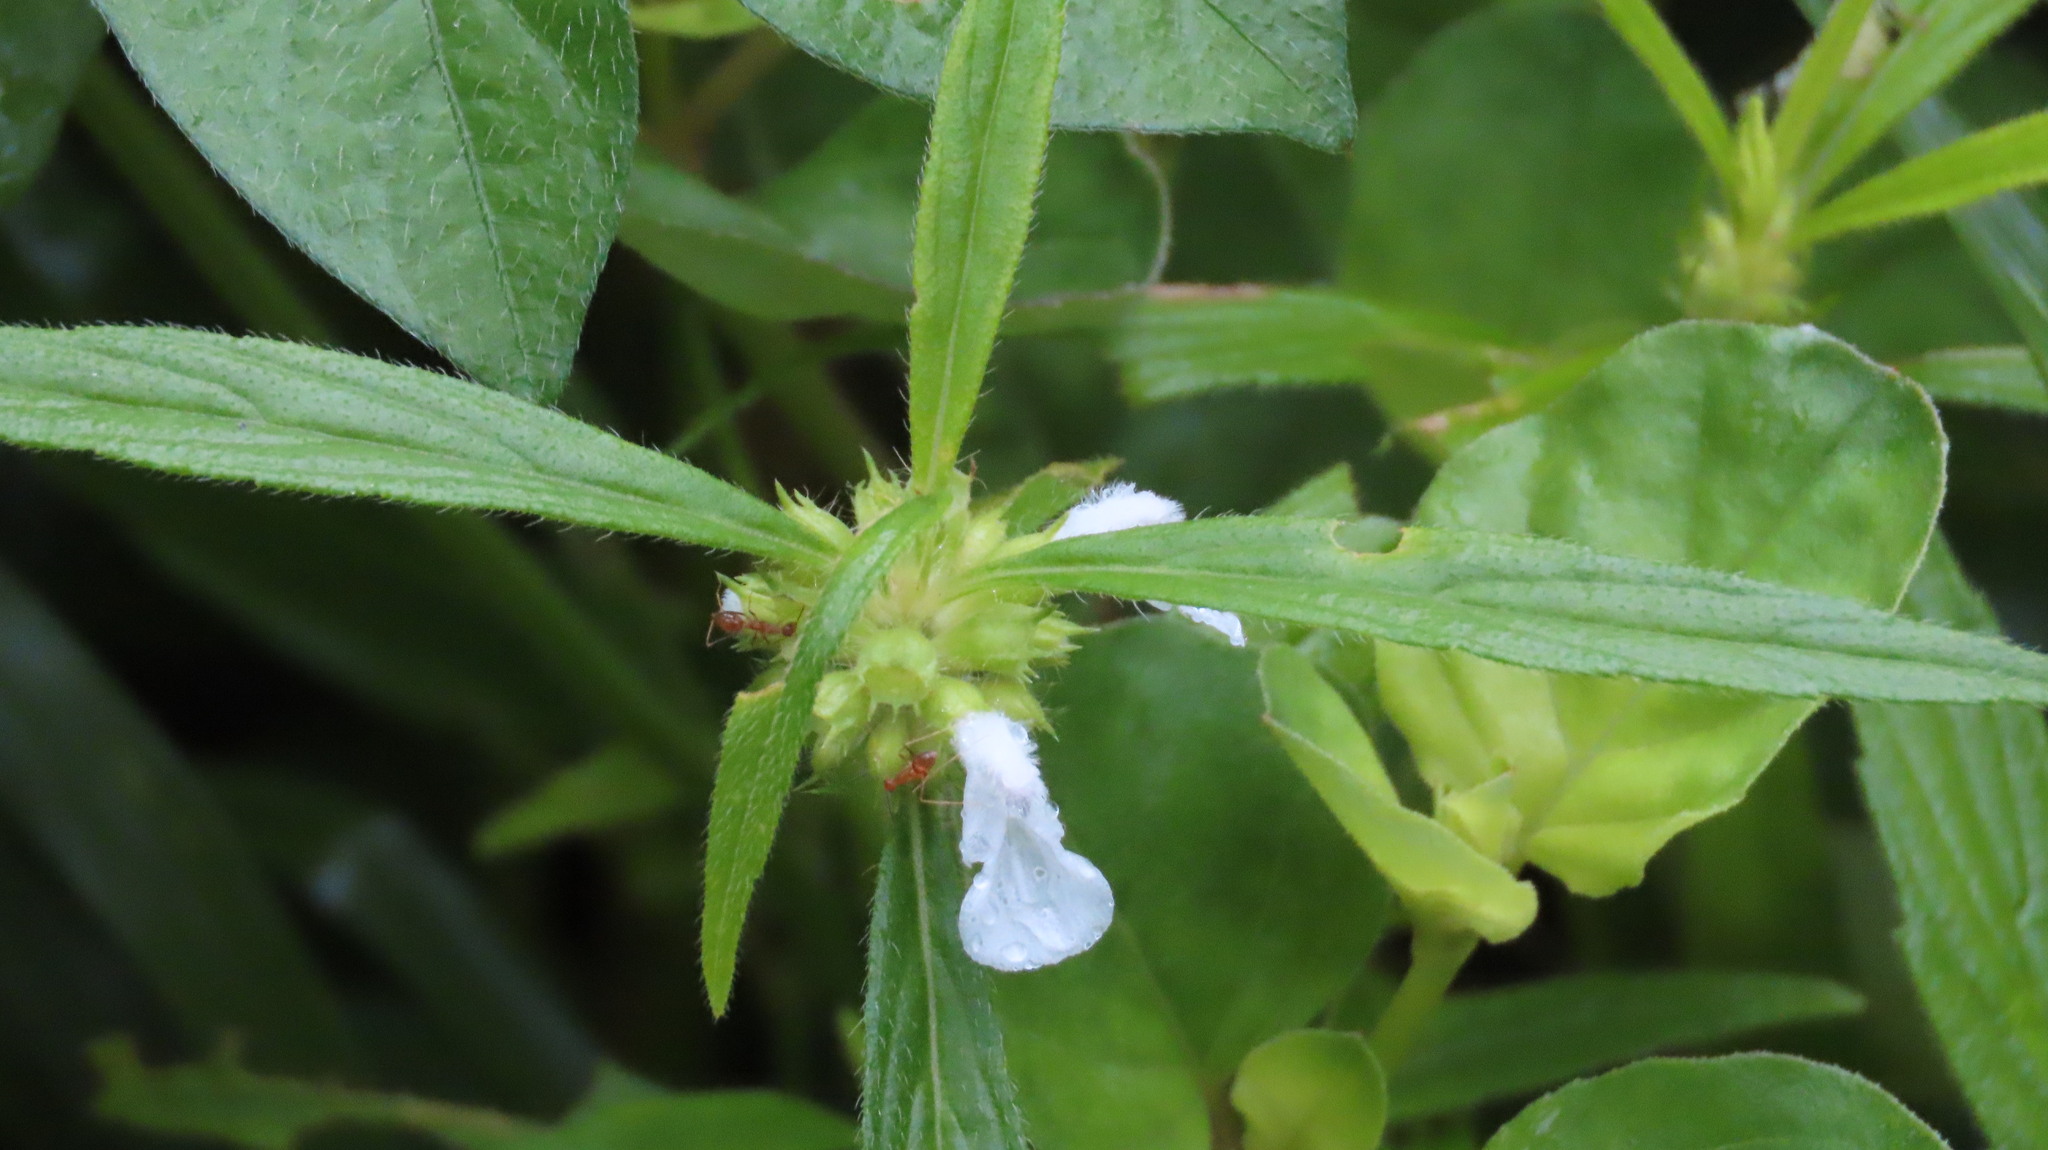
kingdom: Animalia
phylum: Arthropoda
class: Insecta
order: Hymenoptera
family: Formicidae
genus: Anoplolepis
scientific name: Anoplolepis gracilipes
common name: Ant
